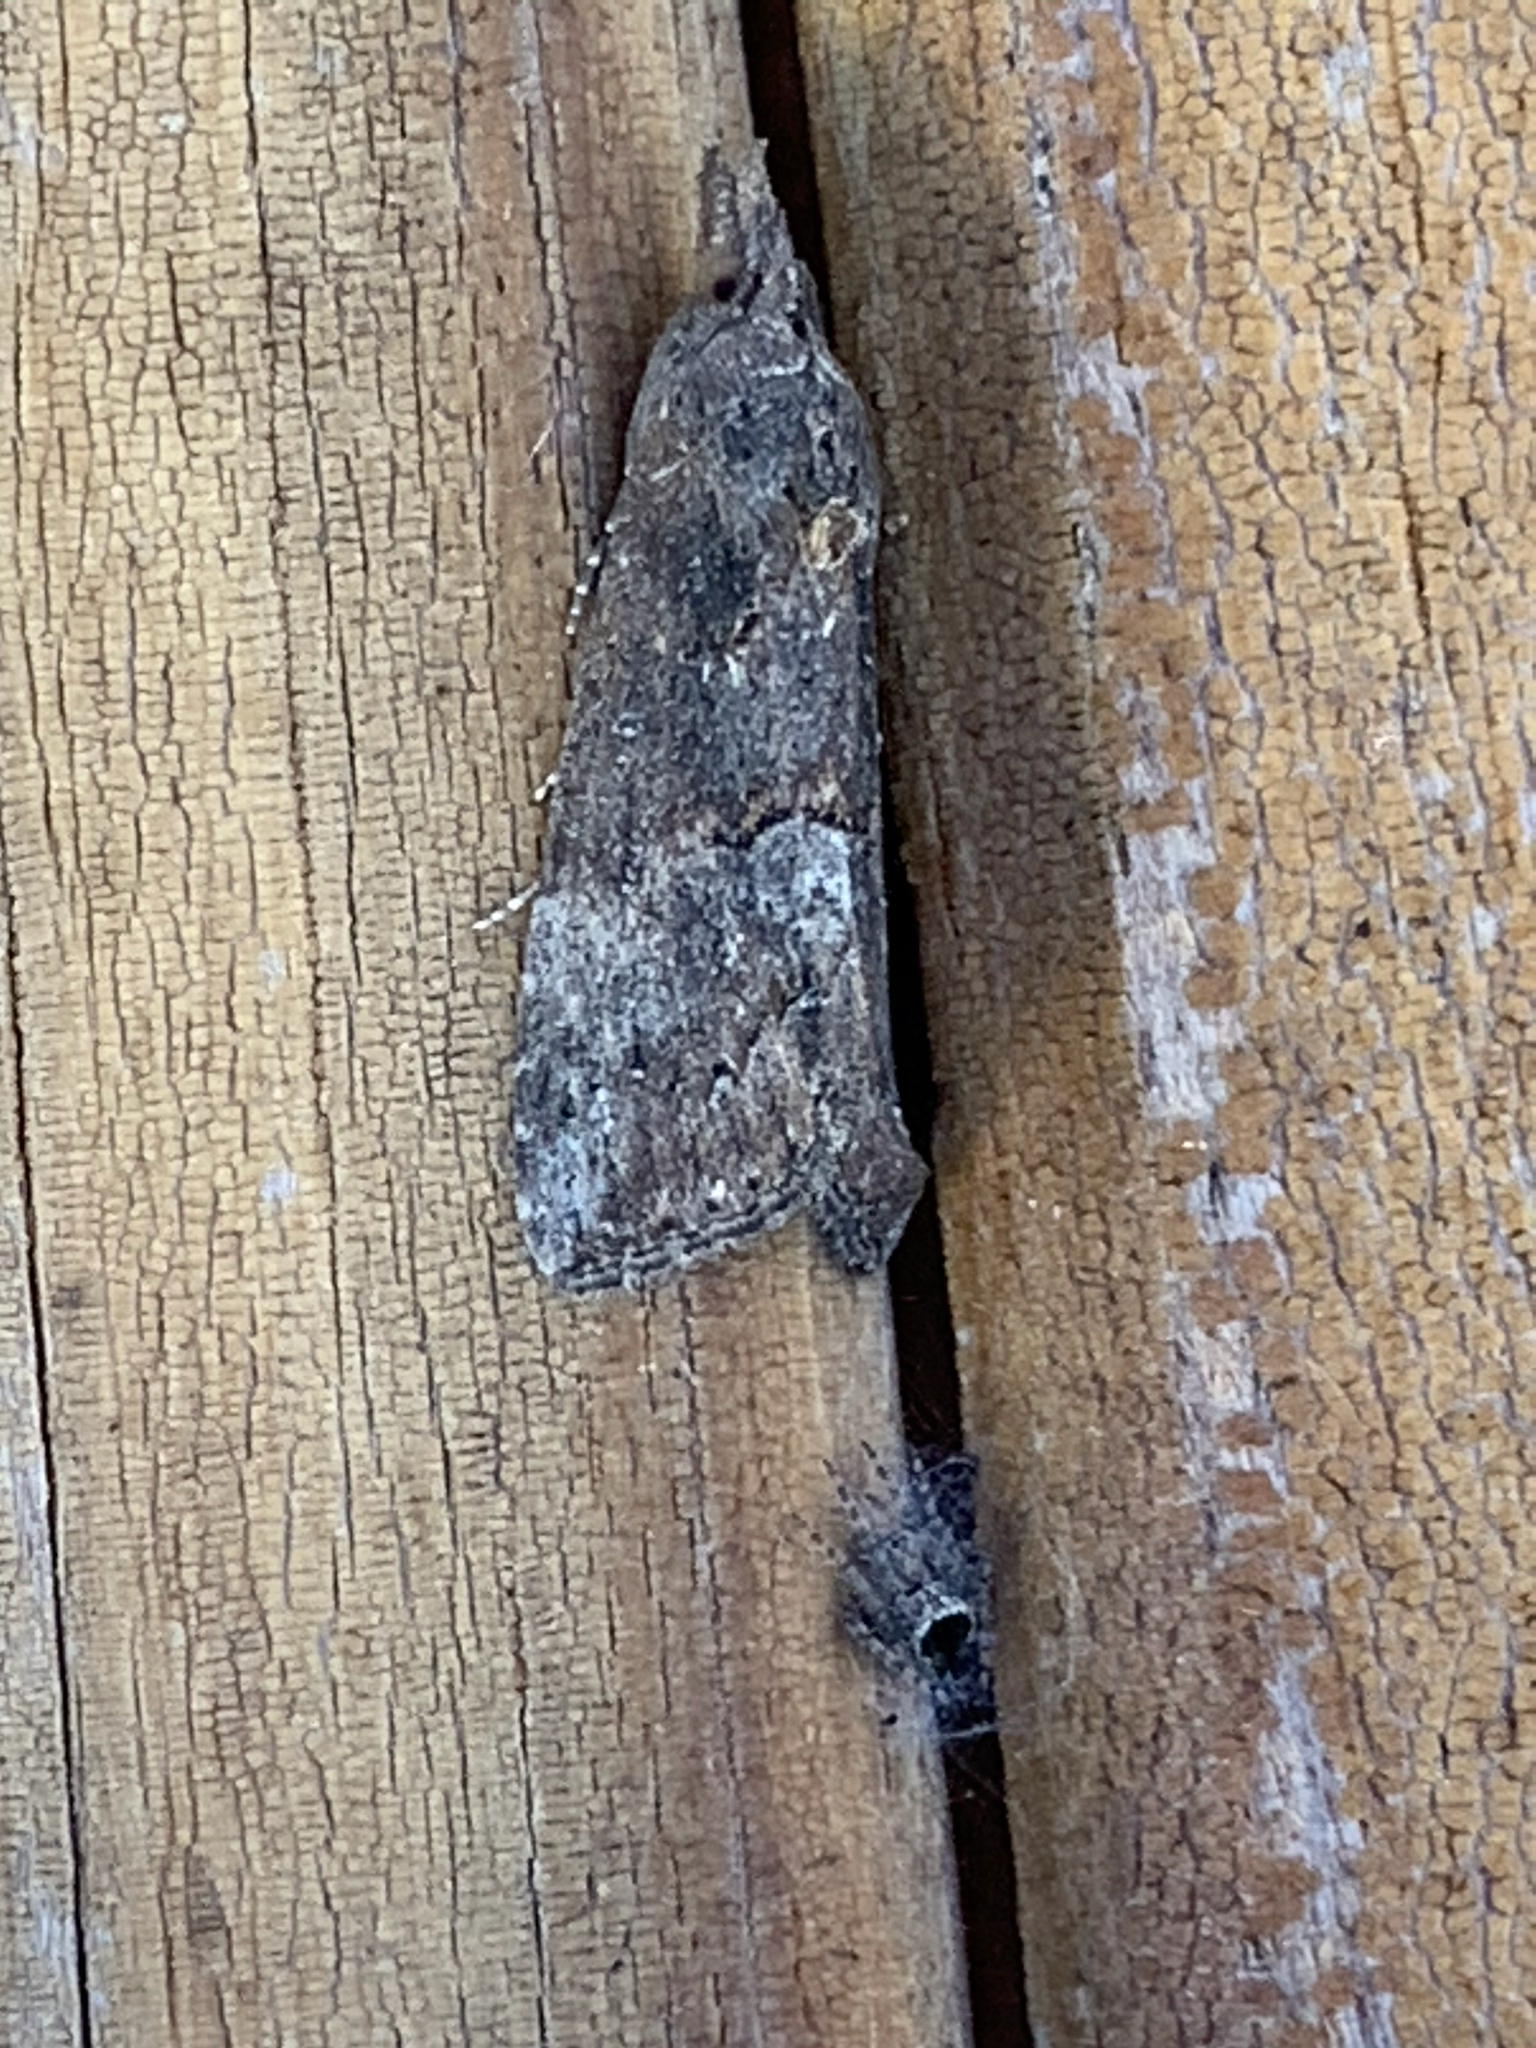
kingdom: Animalia
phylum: Arthropoda
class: Insecta
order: Lepidoptera
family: Erebidae
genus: Hypena
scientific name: Hypena scabra
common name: Green cloverworm
